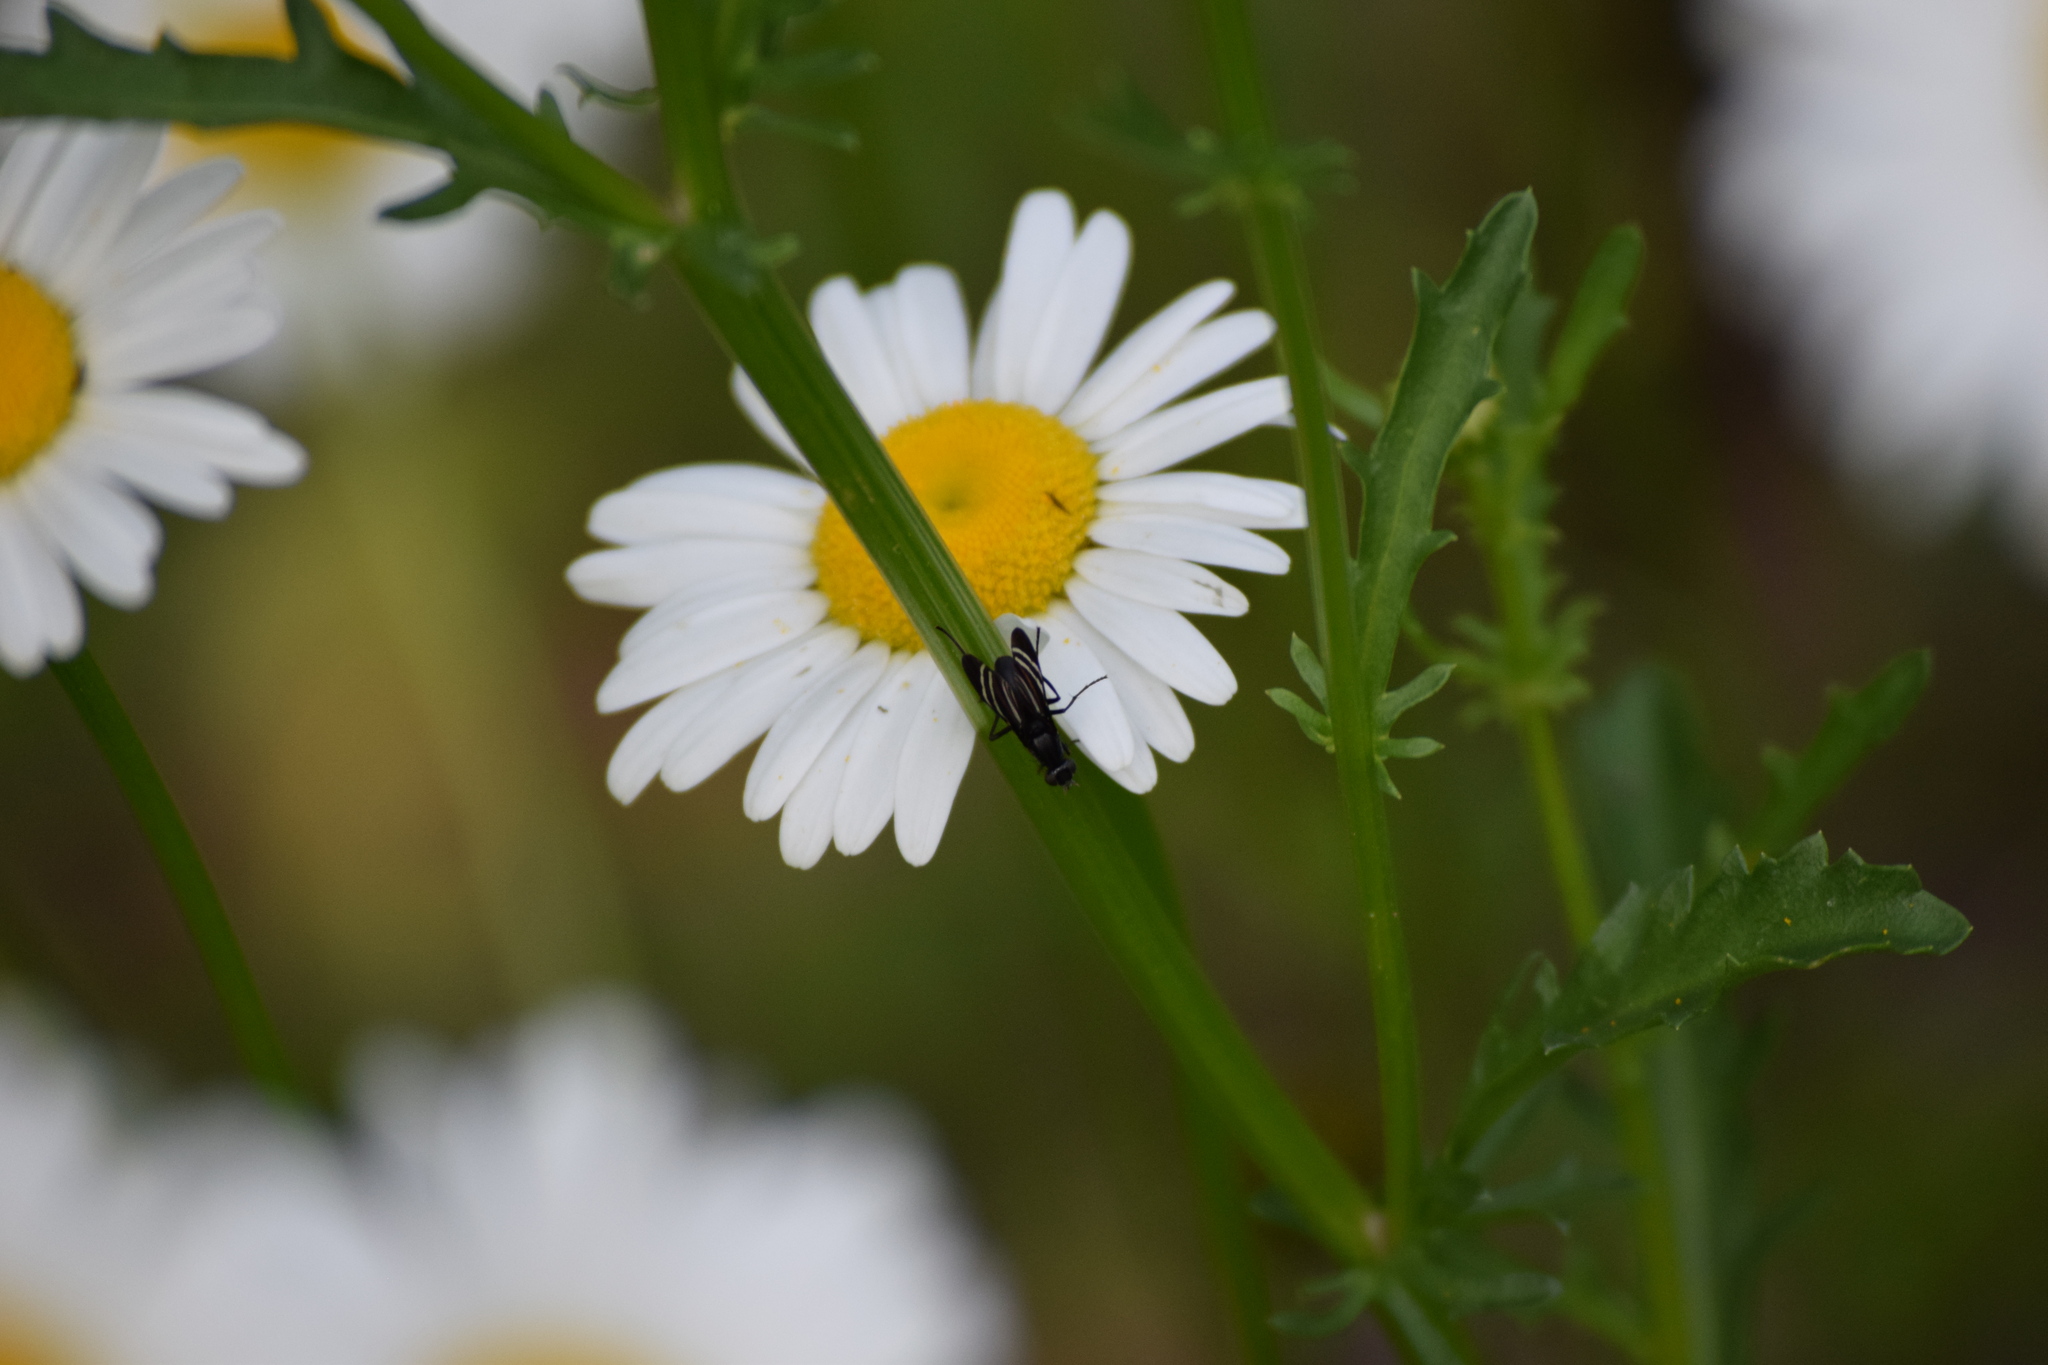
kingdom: Animalia
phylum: Arthropoda
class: Insecta
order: Diptera
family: Ulidiidae
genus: Tritoxa
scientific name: Tritoxa flexa
